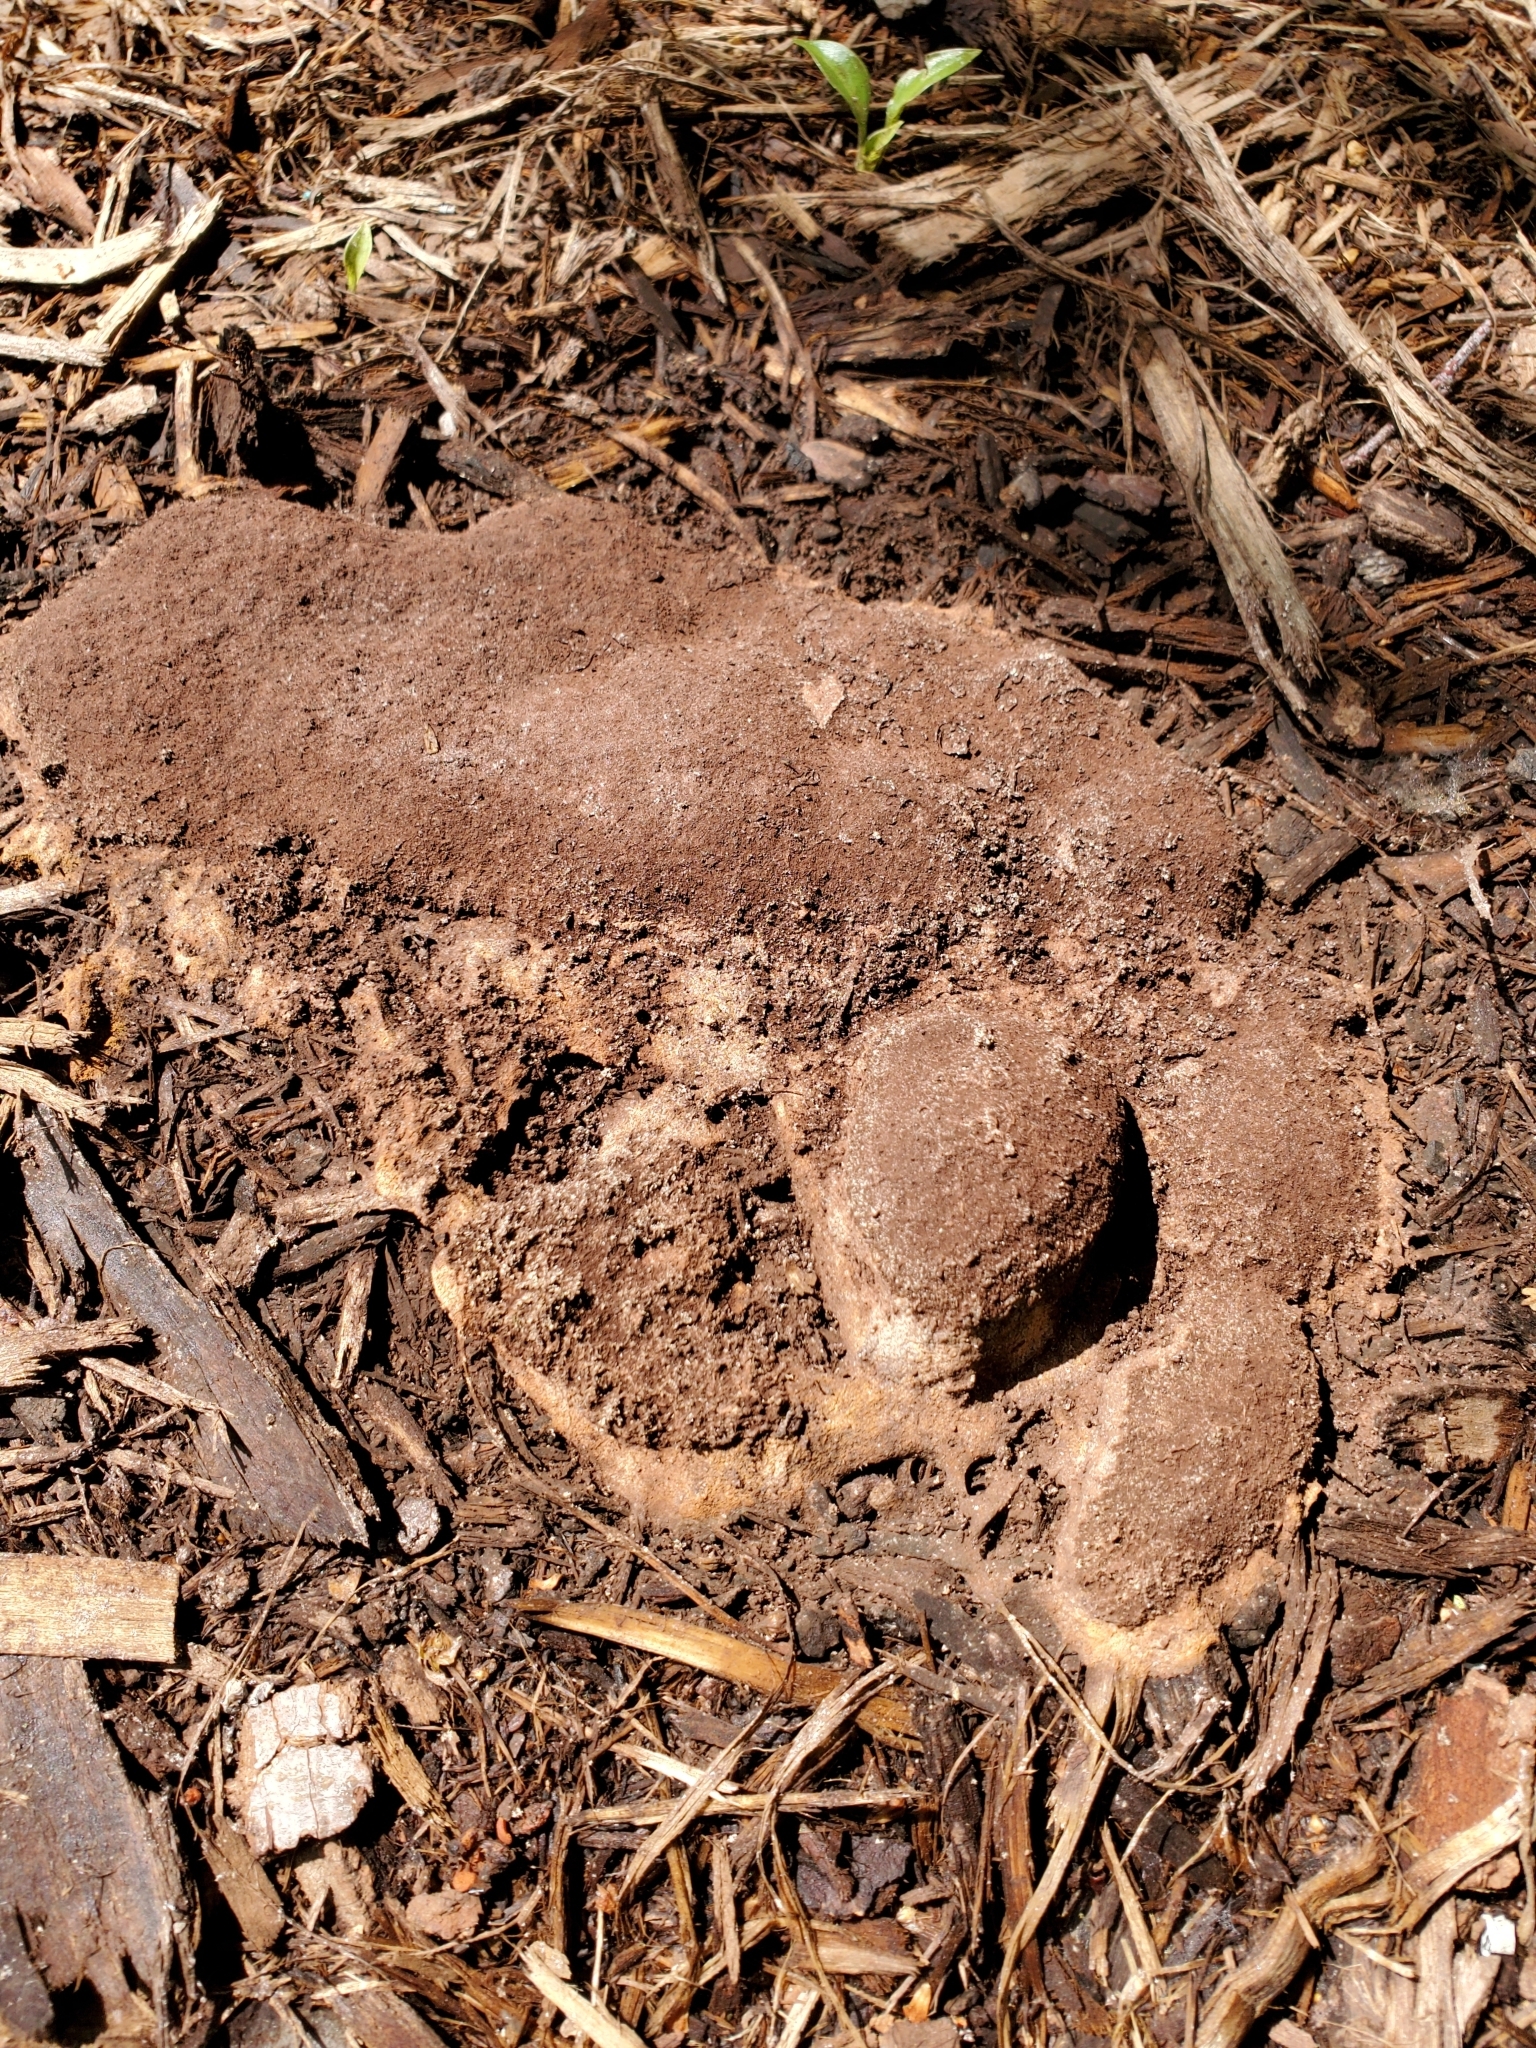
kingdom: Protozoa
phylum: Mycetozoa
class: Myxomycetes
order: Physarales
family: Physaraceae
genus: Fuligo
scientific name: Fuligo septica
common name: Dog vomit slime mold
